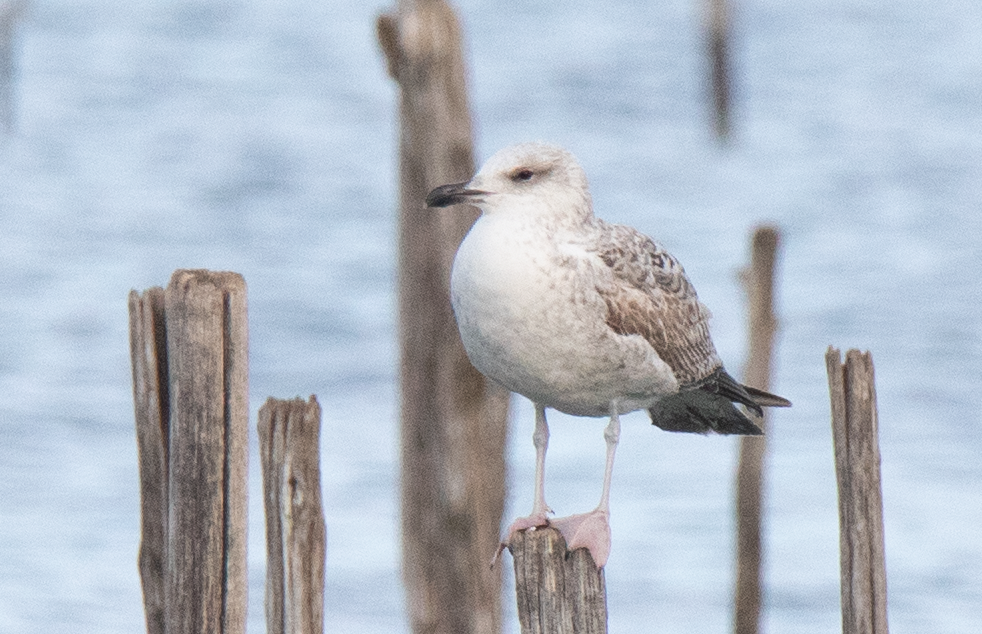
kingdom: Animalia
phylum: Chordata
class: Aves
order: Charadriiformes
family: Laridae
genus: Larus
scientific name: Larus michahellis
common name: Yellow-legged gull
